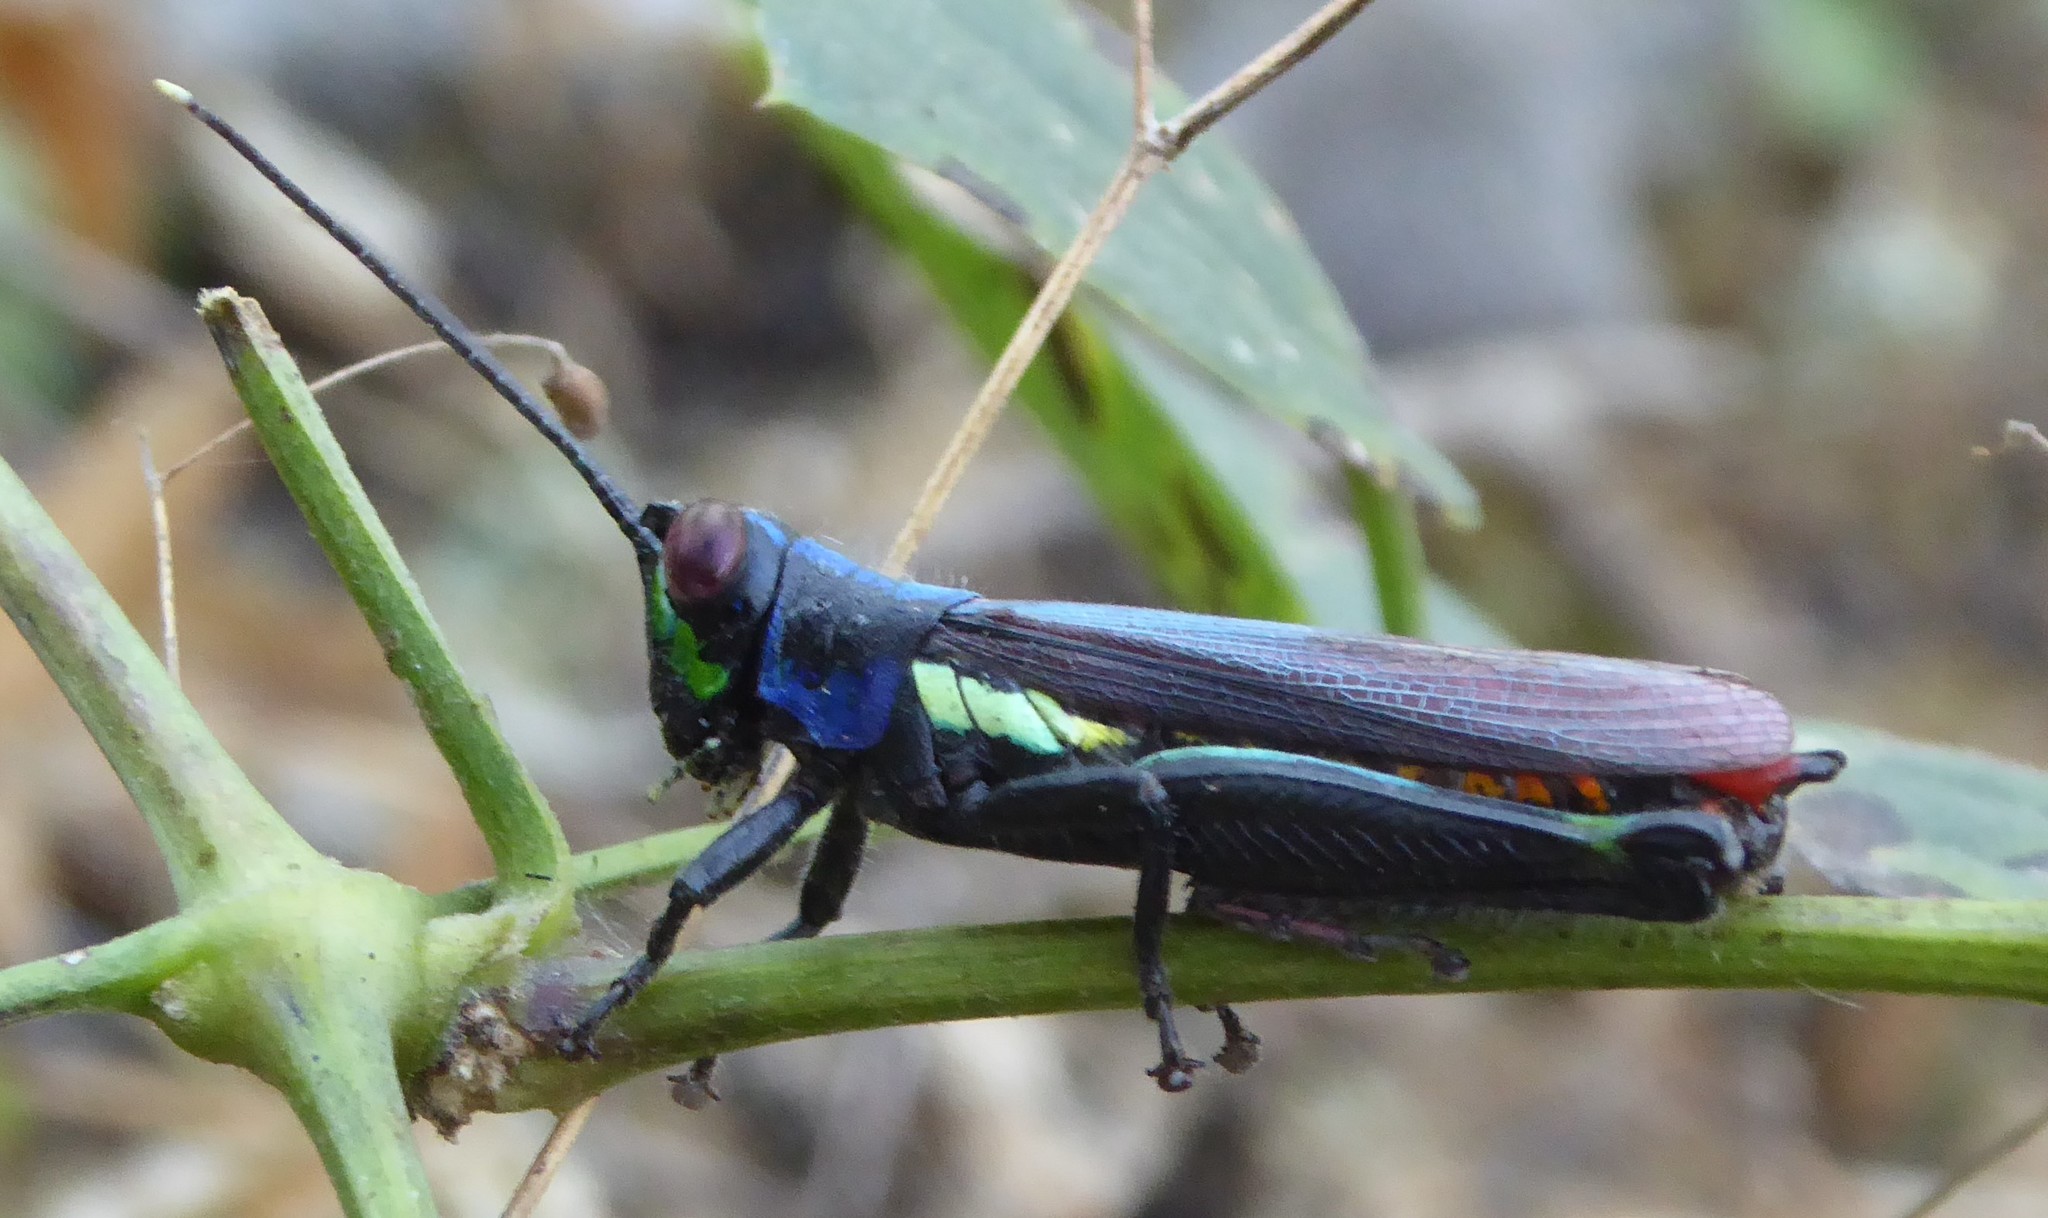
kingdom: Animalia
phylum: Arthropoda
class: Insecta
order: Orthoptera
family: Acrididae
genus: Proctolabus
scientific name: Proctolabus mexicanus
